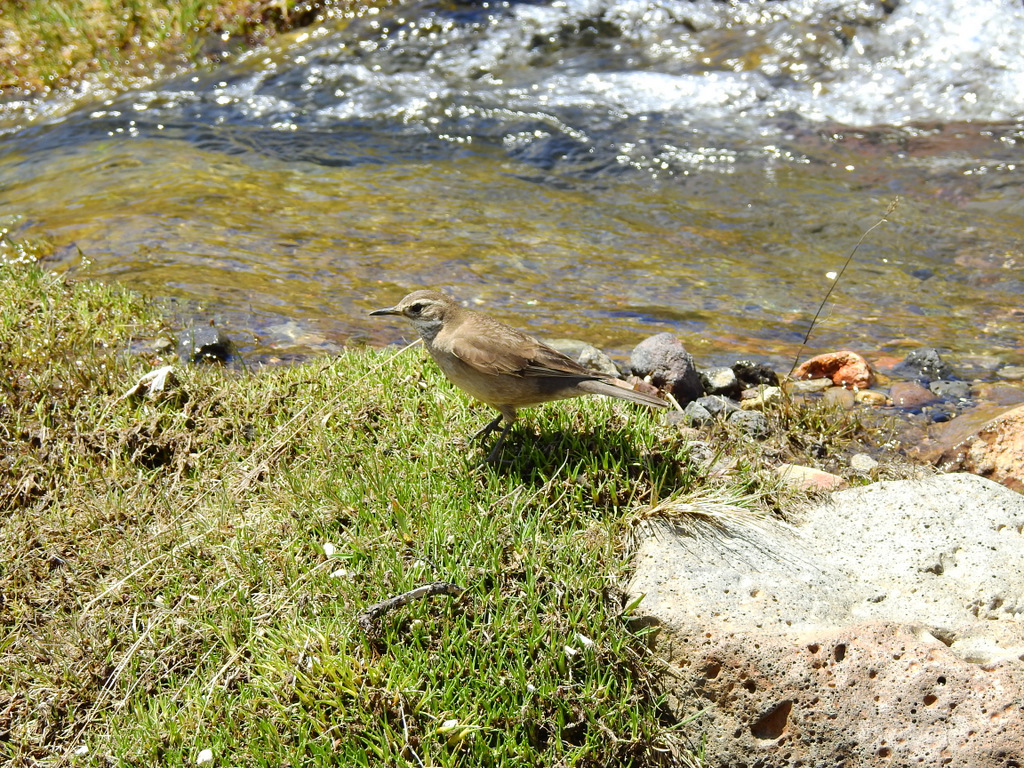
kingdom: Animalia
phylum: Chordata
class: Aves
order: Passeriformes
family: Furnariidae
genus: Cinclodes
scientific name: Cinclodes fuscus
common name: Buff-winged cinclodes
